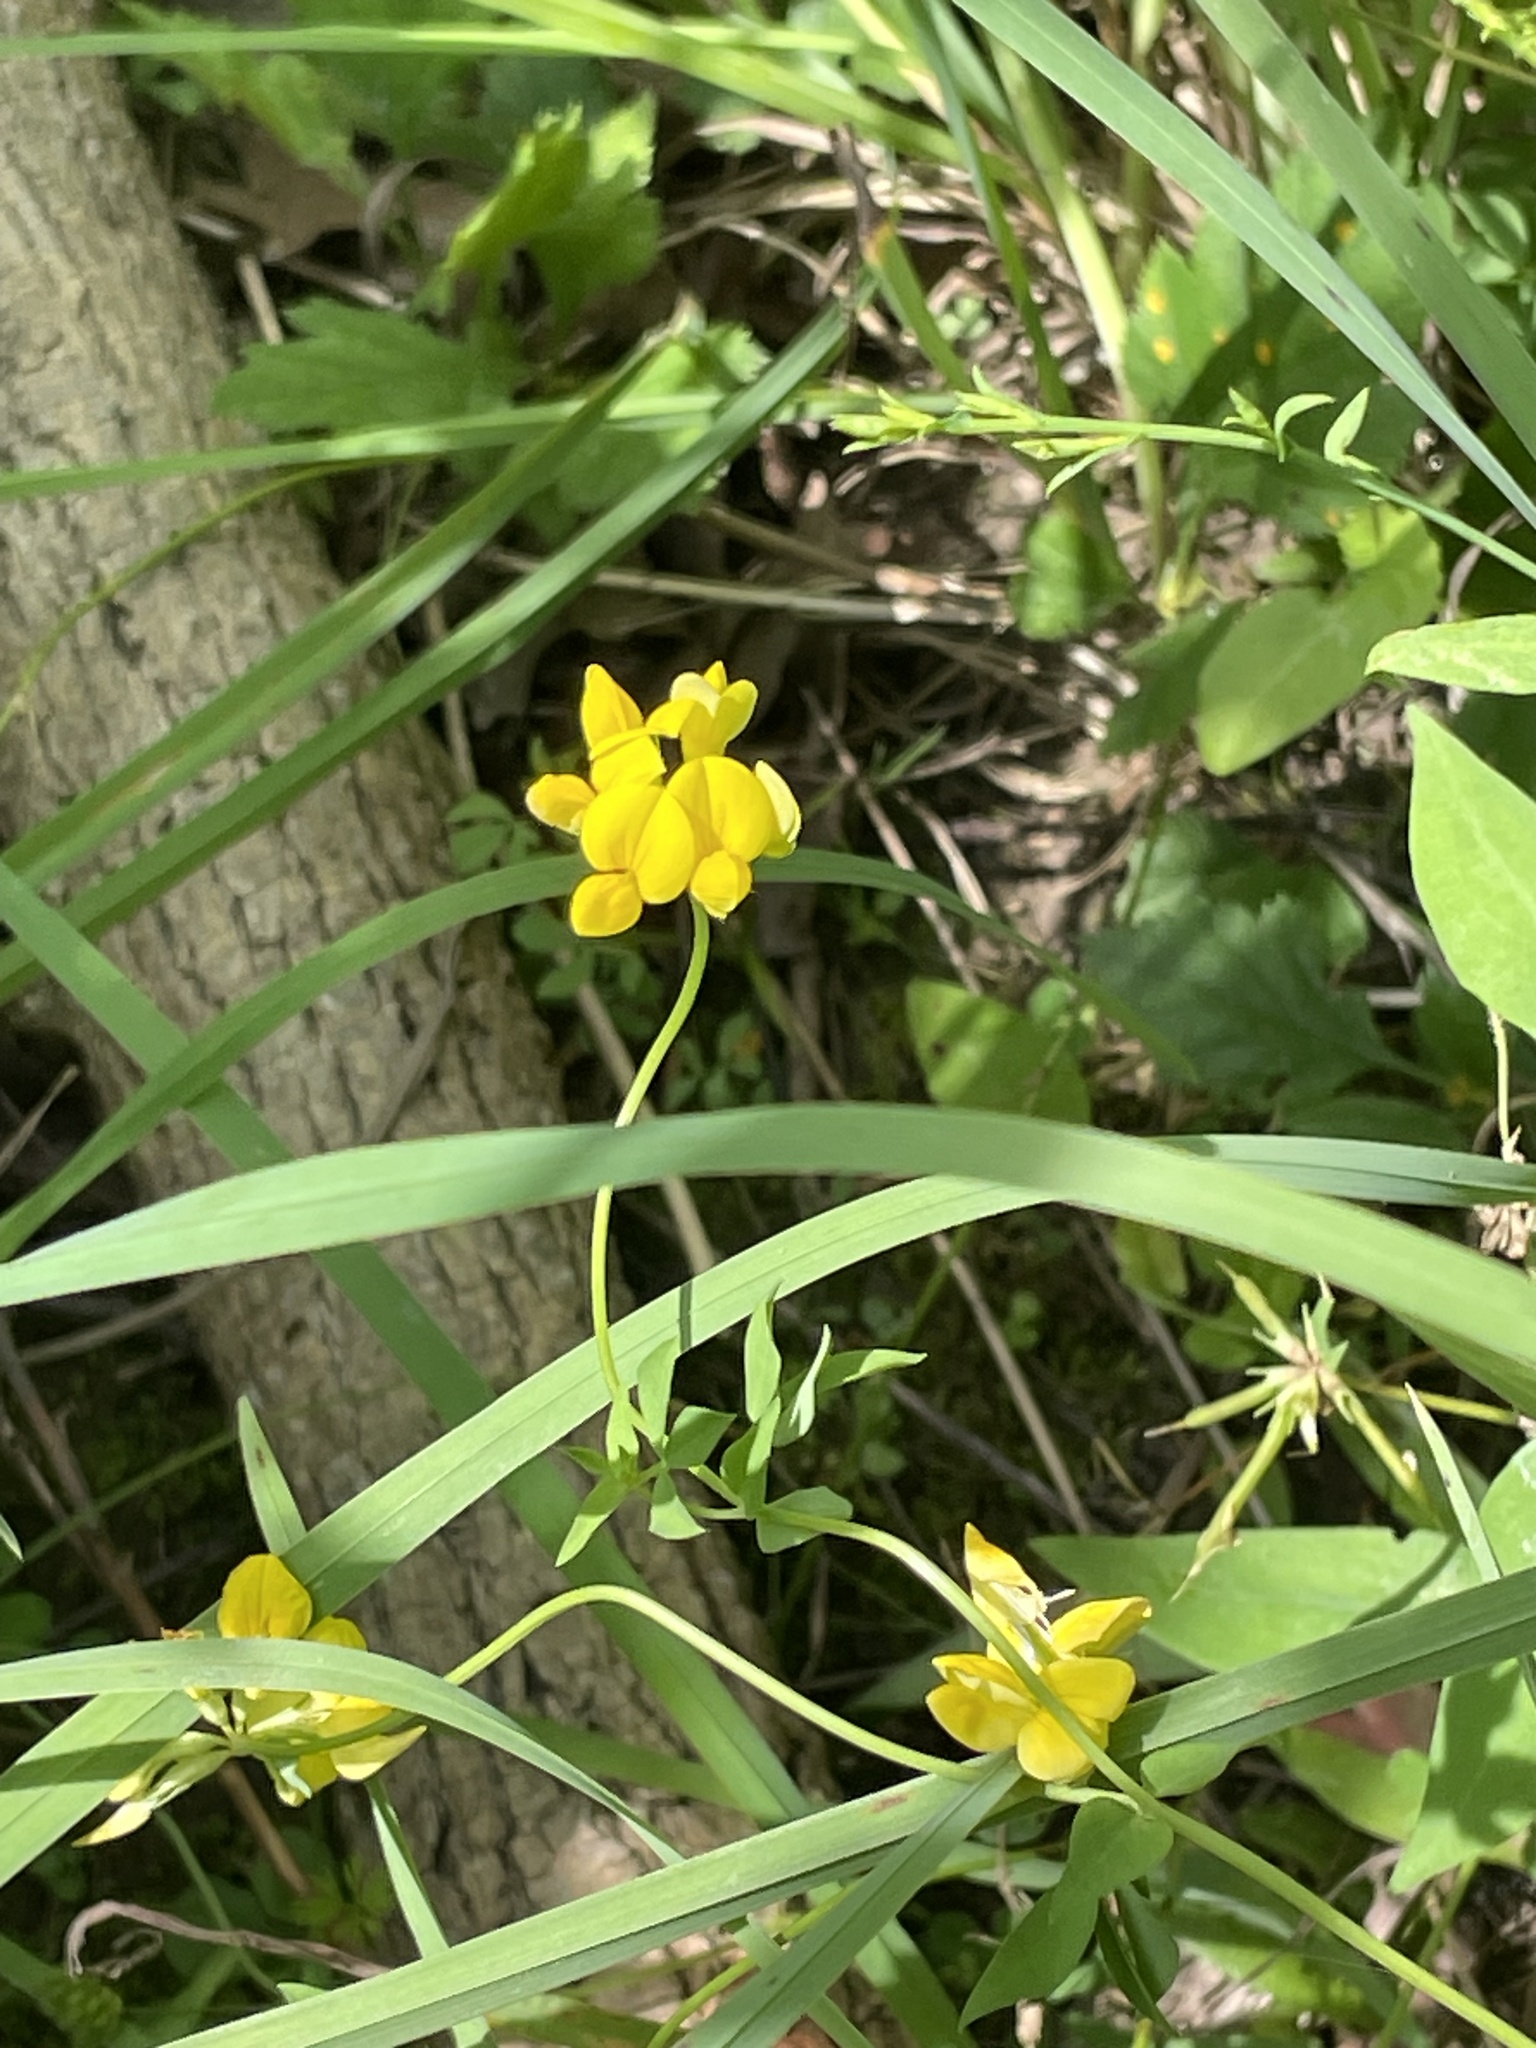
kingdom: Plantae
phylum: Tracheophyta
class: Magnoliopsida
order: Fabales
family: Fabaceae
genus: Lotus
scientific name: Lotus corniculatus
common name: Common bird's-foot-trefoil
